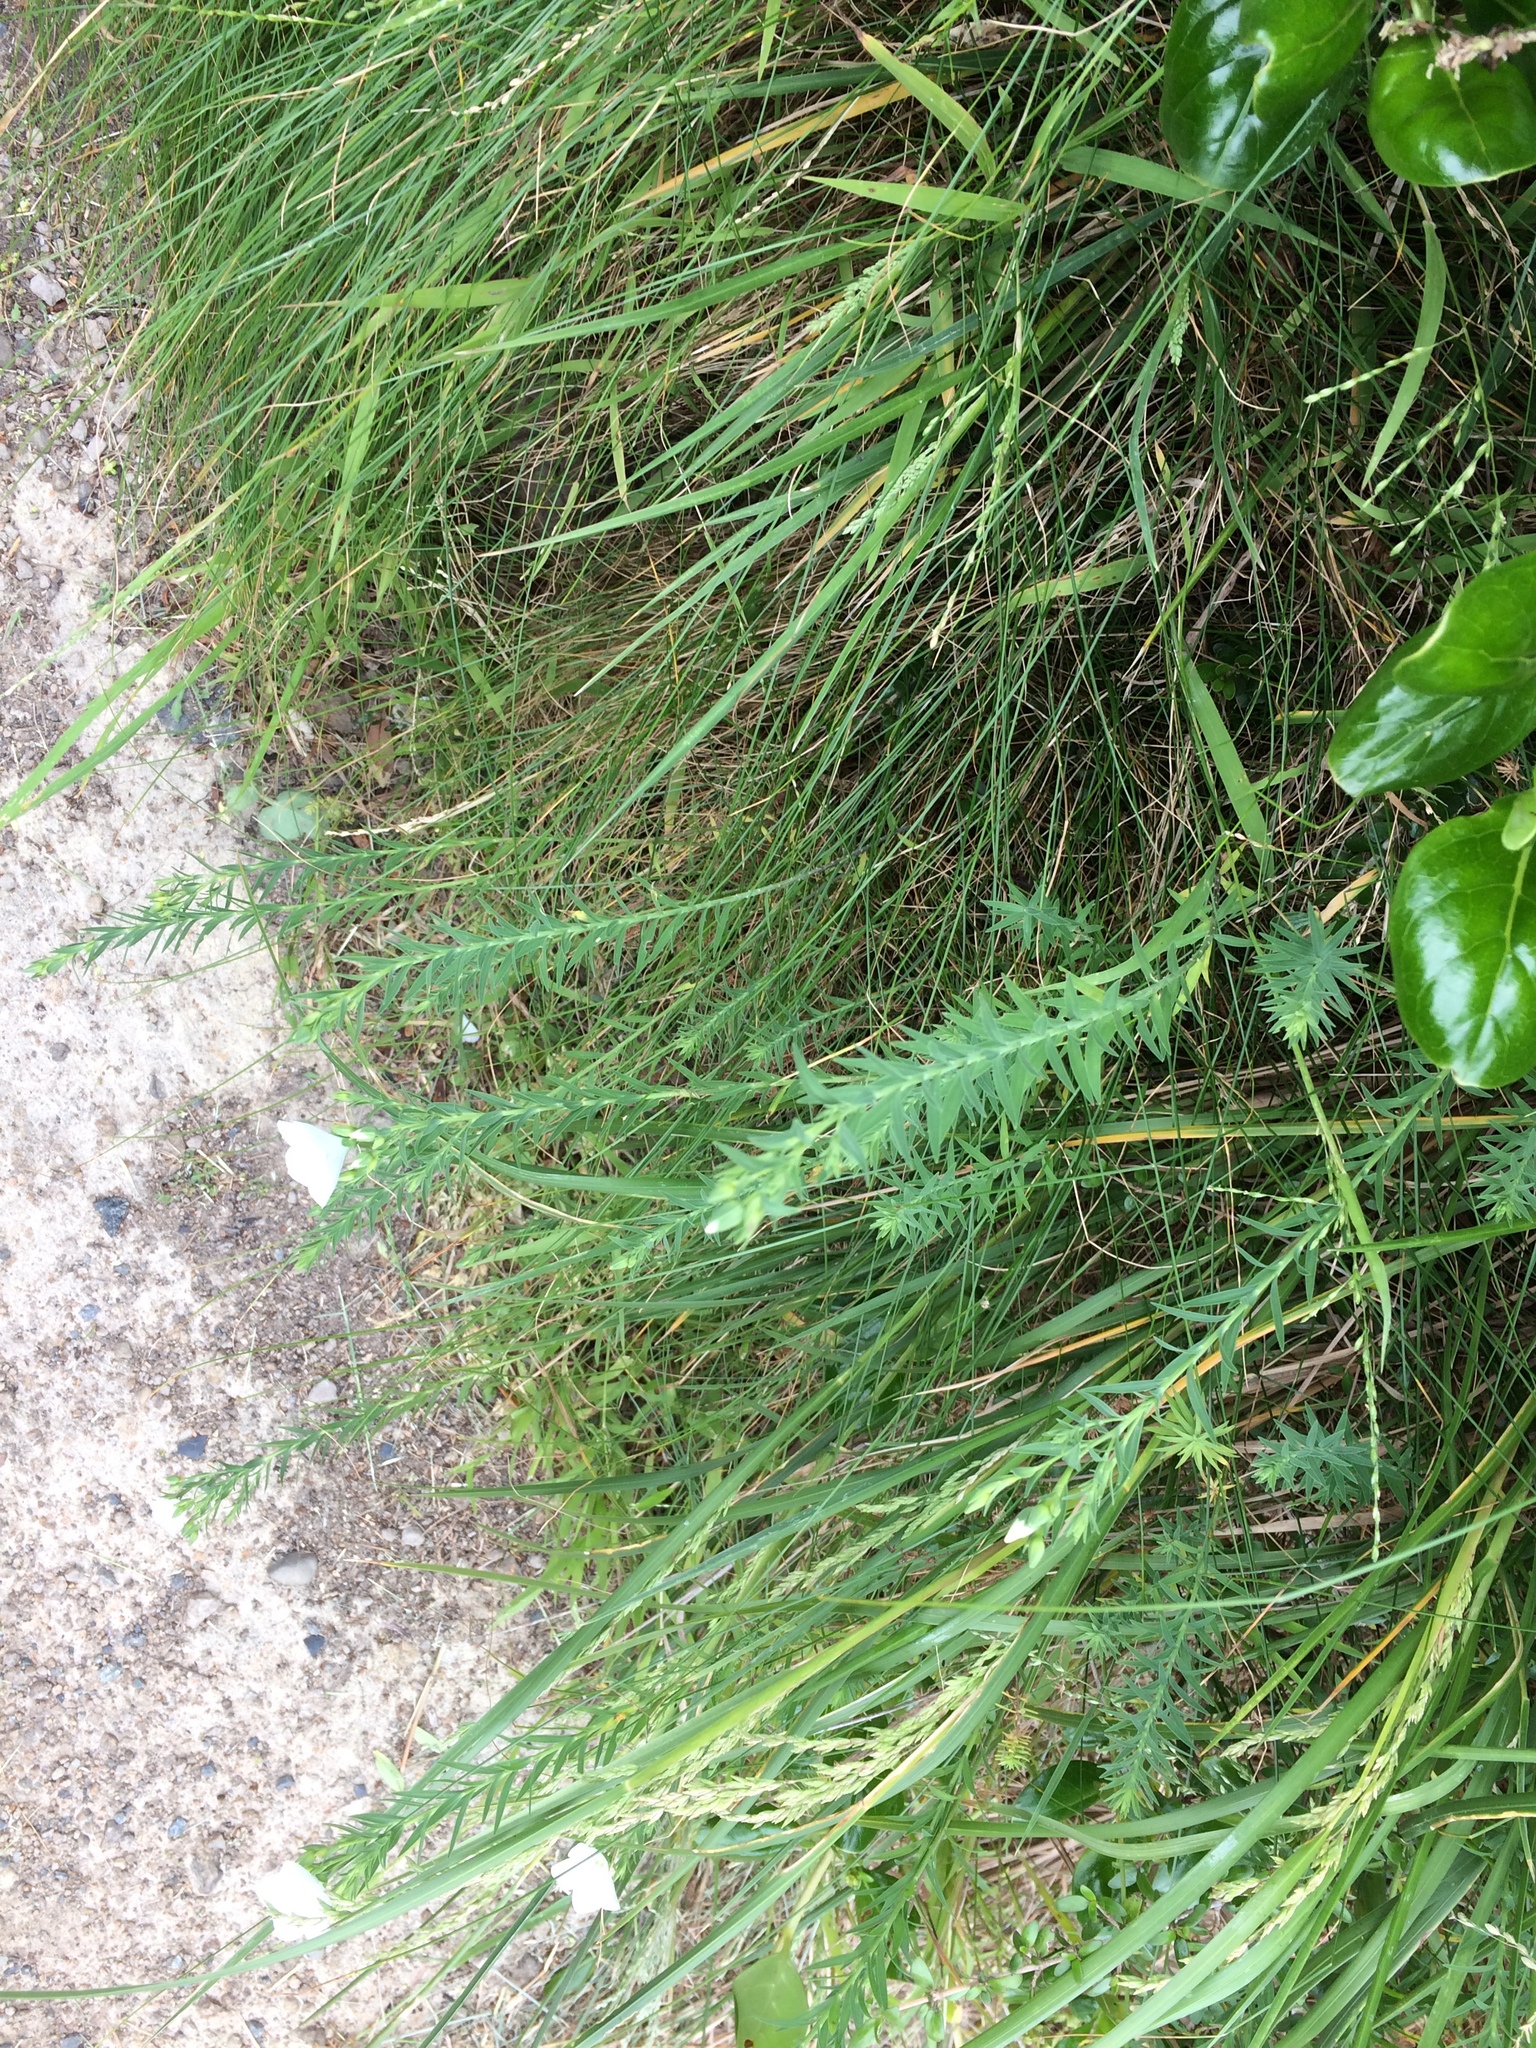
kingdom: Plantae
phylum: Tracheophyta
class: Magnoliopsida
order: Malpighiales
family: Linaceae
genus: Linum
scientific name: Linum monogynum
